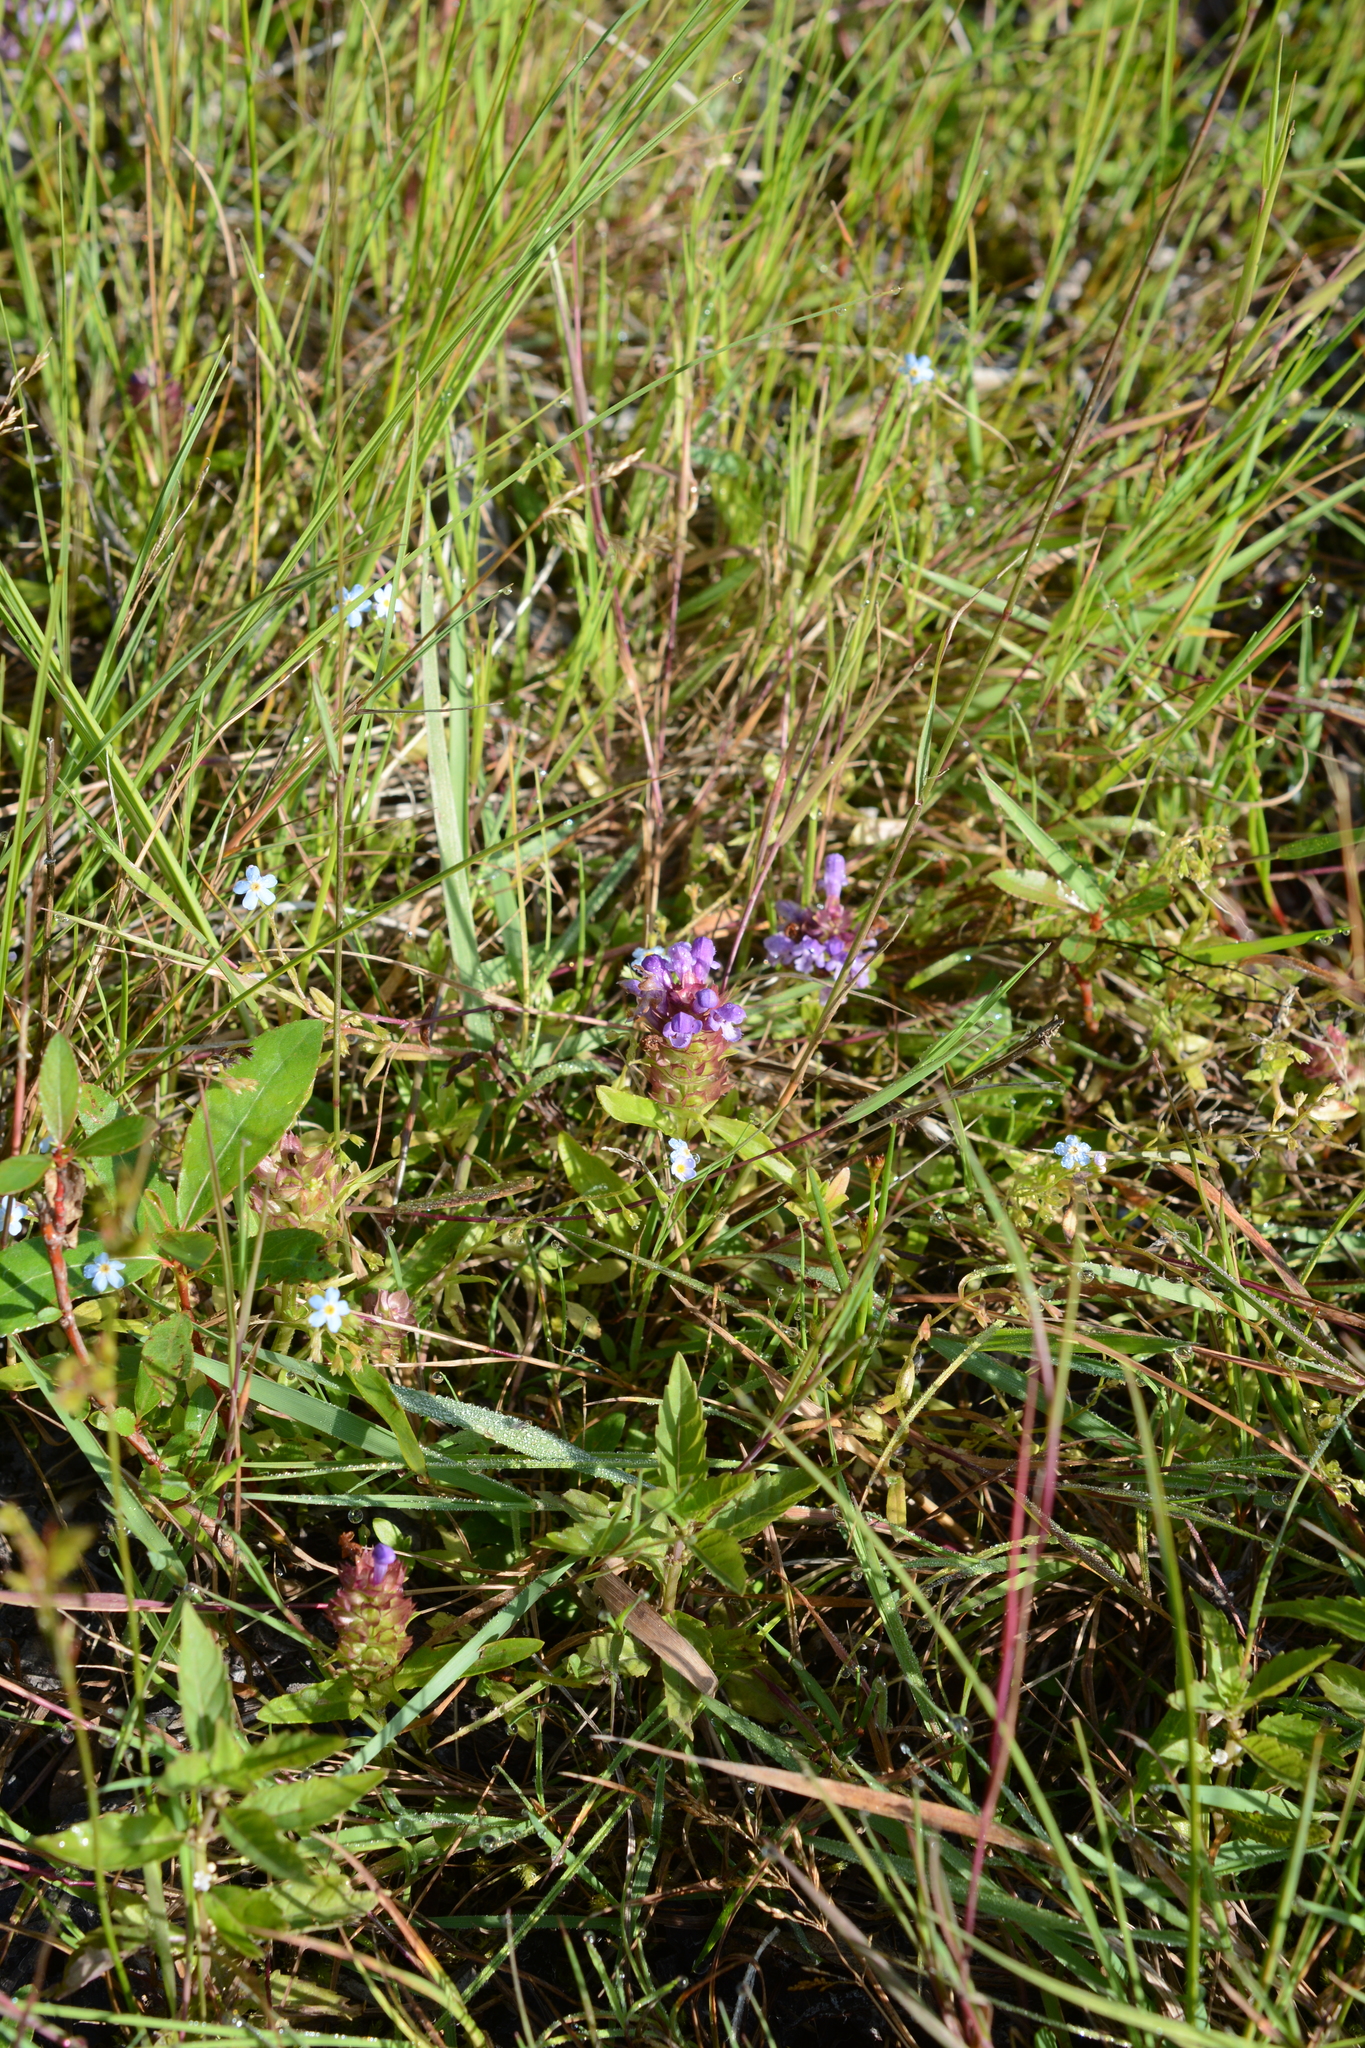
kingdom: Plantae
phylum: Tracheophyta
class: Magnoliopsida
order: Lamiales
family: Lamiaceae
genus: Prunella
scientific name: Prunella vulgaris
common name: Heal-all
